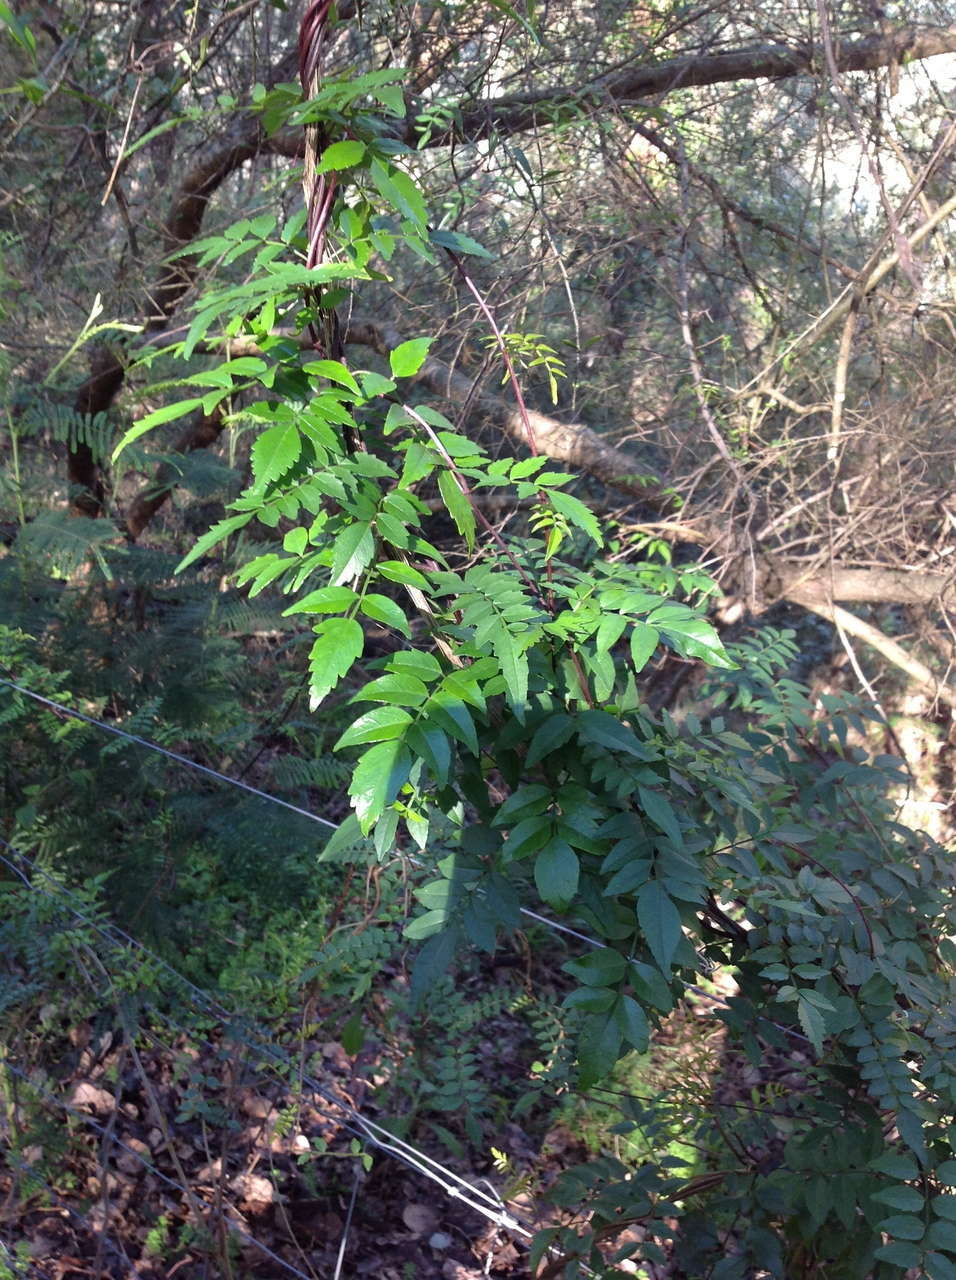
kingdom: Plantae
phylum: Tracheophyta
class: Magnoliopsida
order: Lamiales
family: Bignoniaceae
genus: Pandorea
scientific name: Pandorea pandorana
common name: Wonga-wonga-vine
